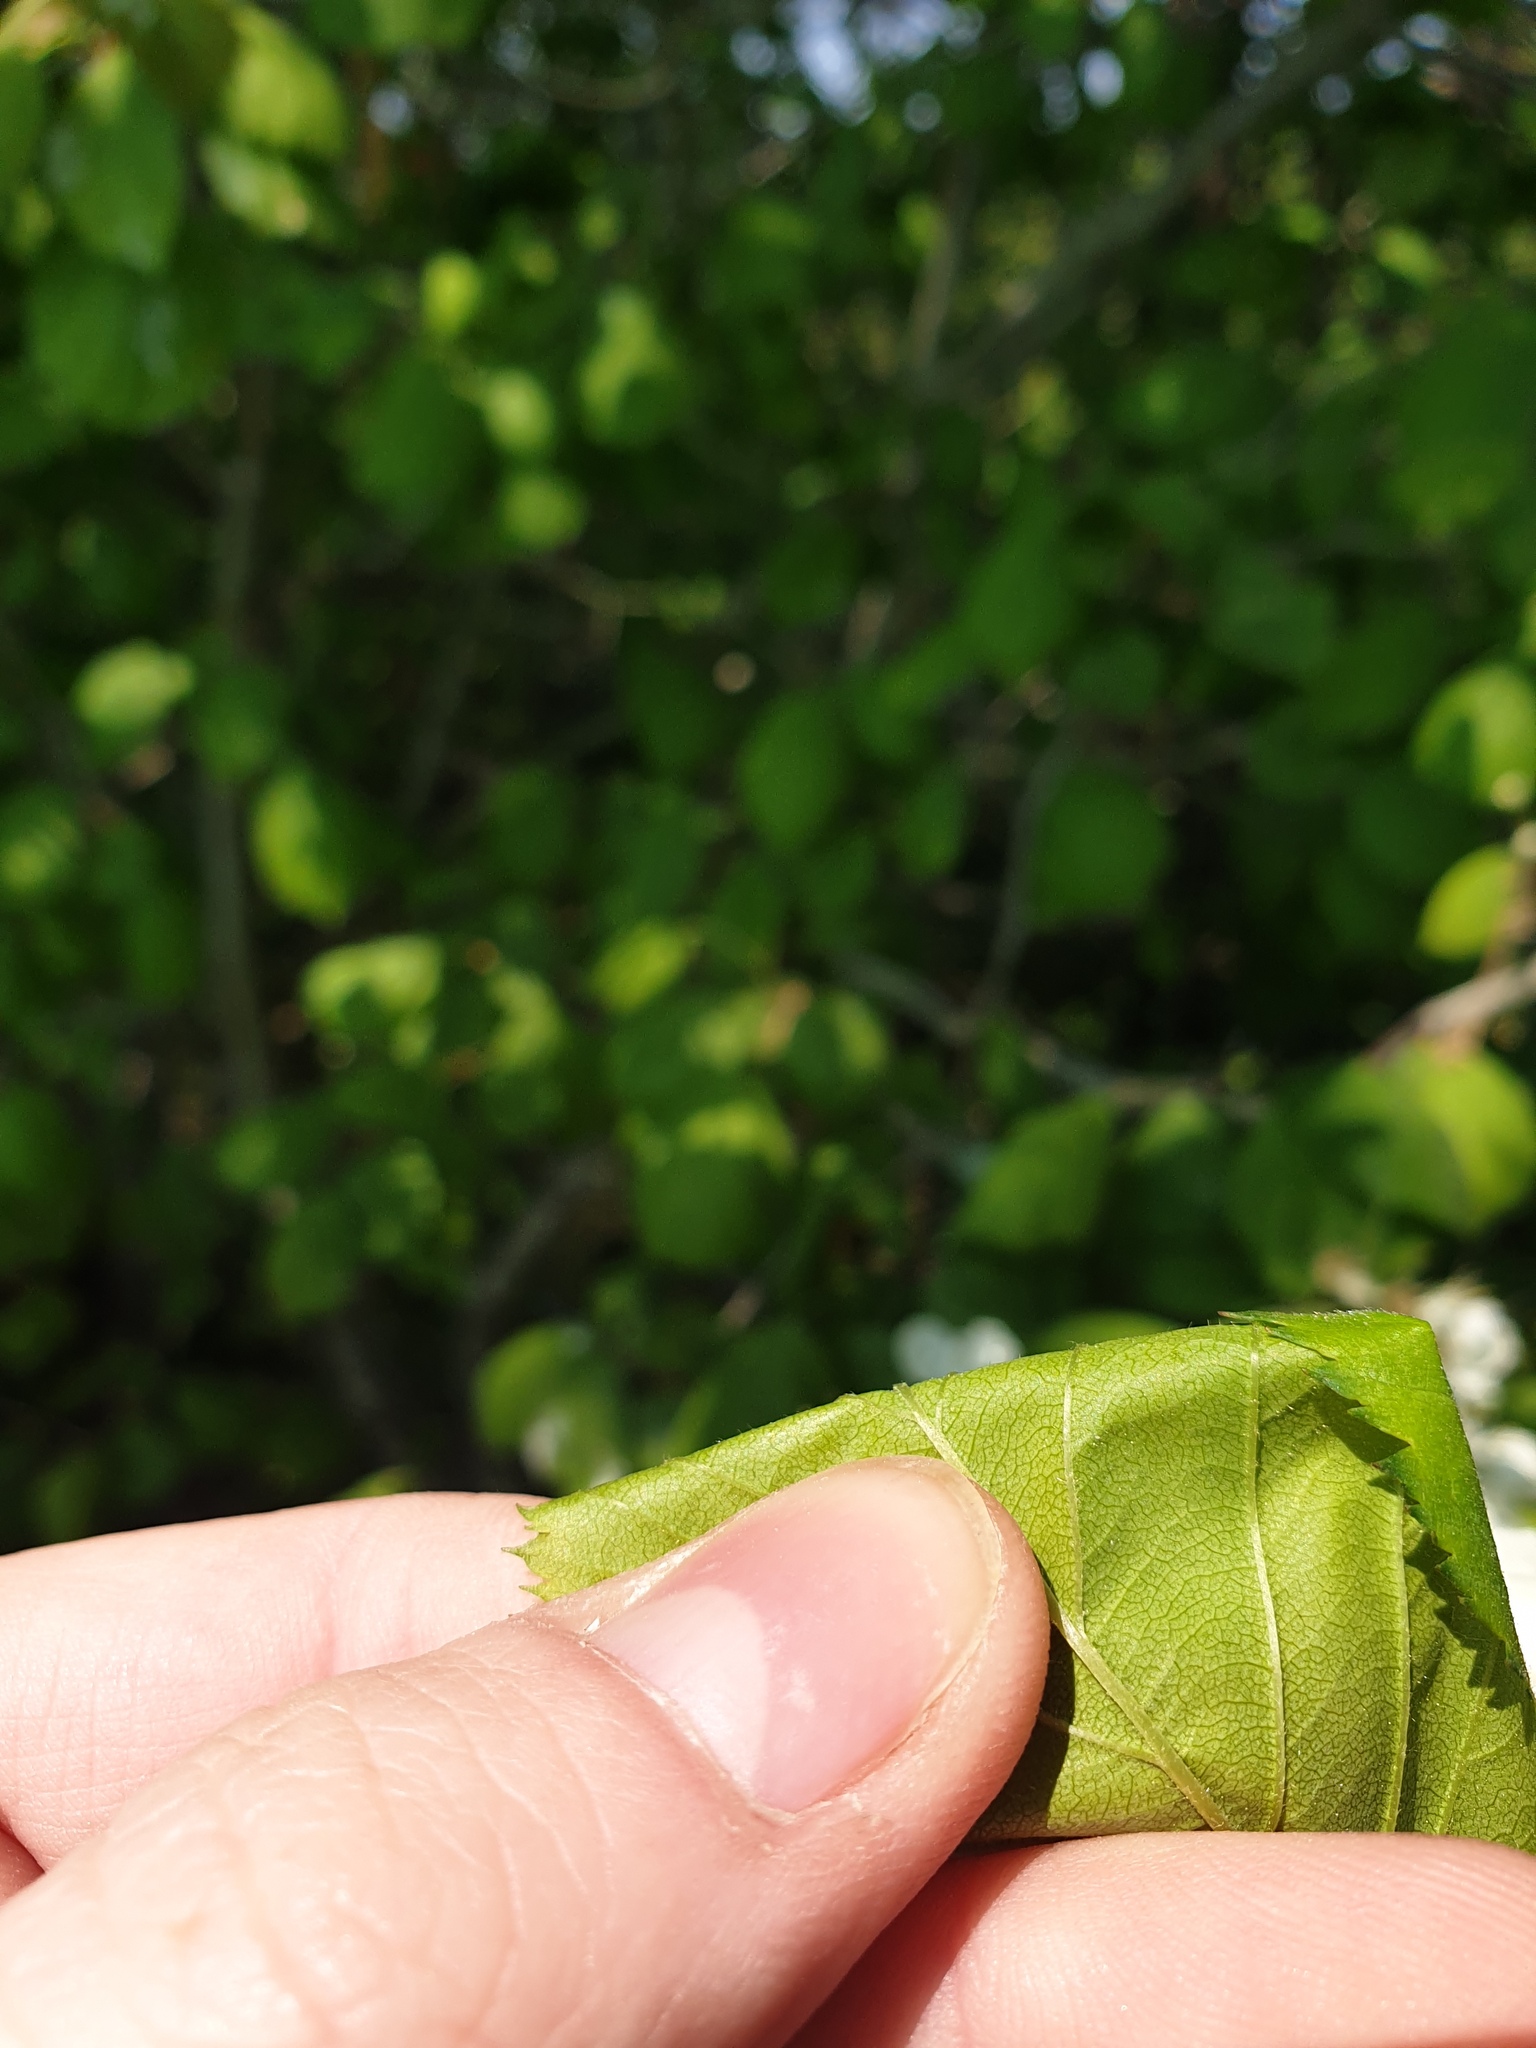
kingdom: Plantae
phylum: Tracheophyta
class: Magnoliopsida
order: Rosales
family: Rosaceae
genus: Crataegus
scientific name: Crataegus coccinea
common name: Scarlet hawthorn
